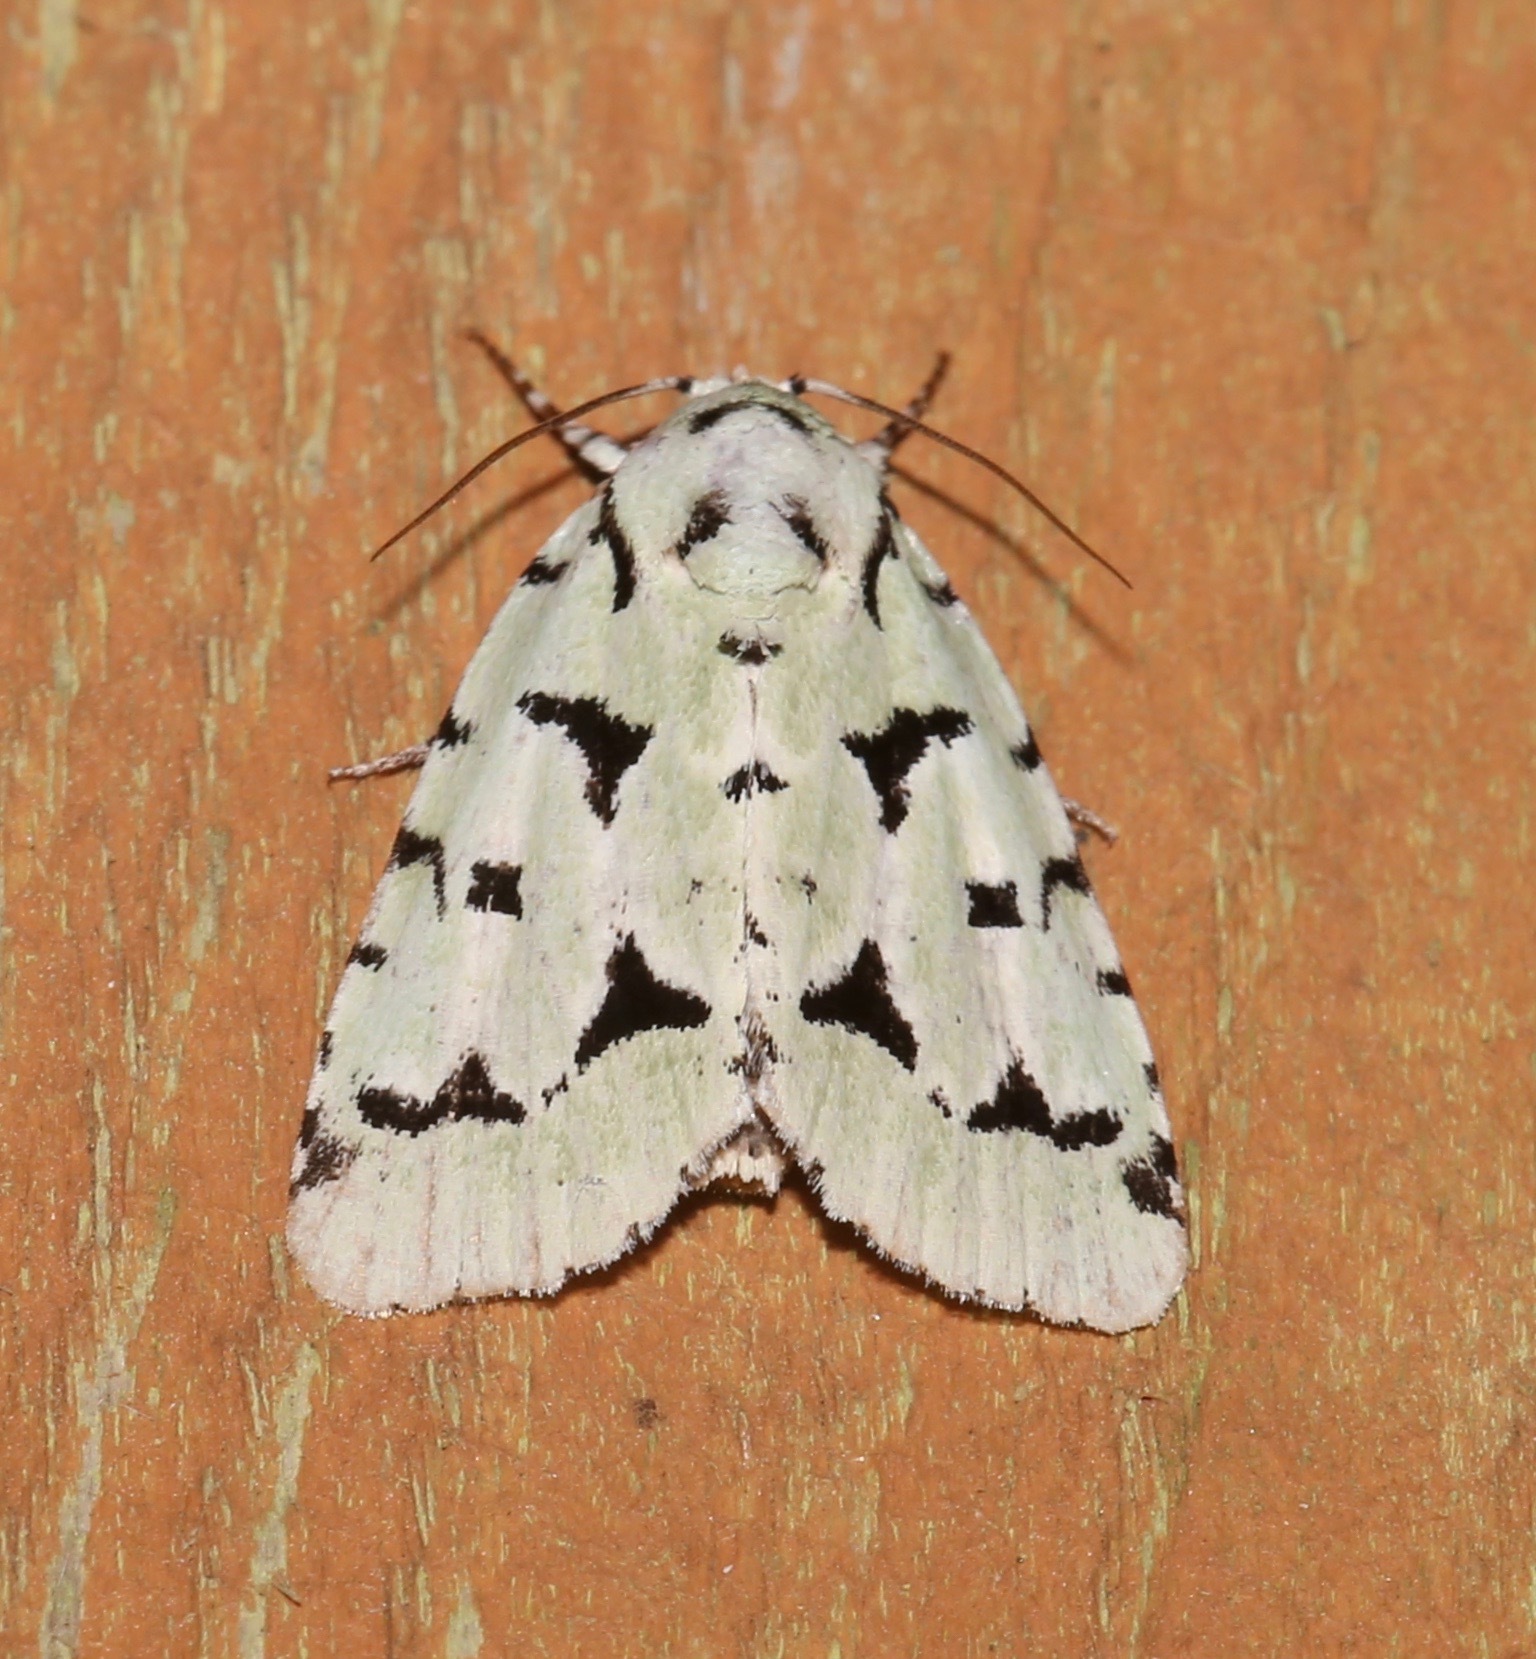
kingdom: Animalia
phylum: Arthropoda
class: Insecta
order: Lepidoptera
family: Noctuidae
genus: Acronicta
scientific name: Acronicta fallax
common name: Green marvel
